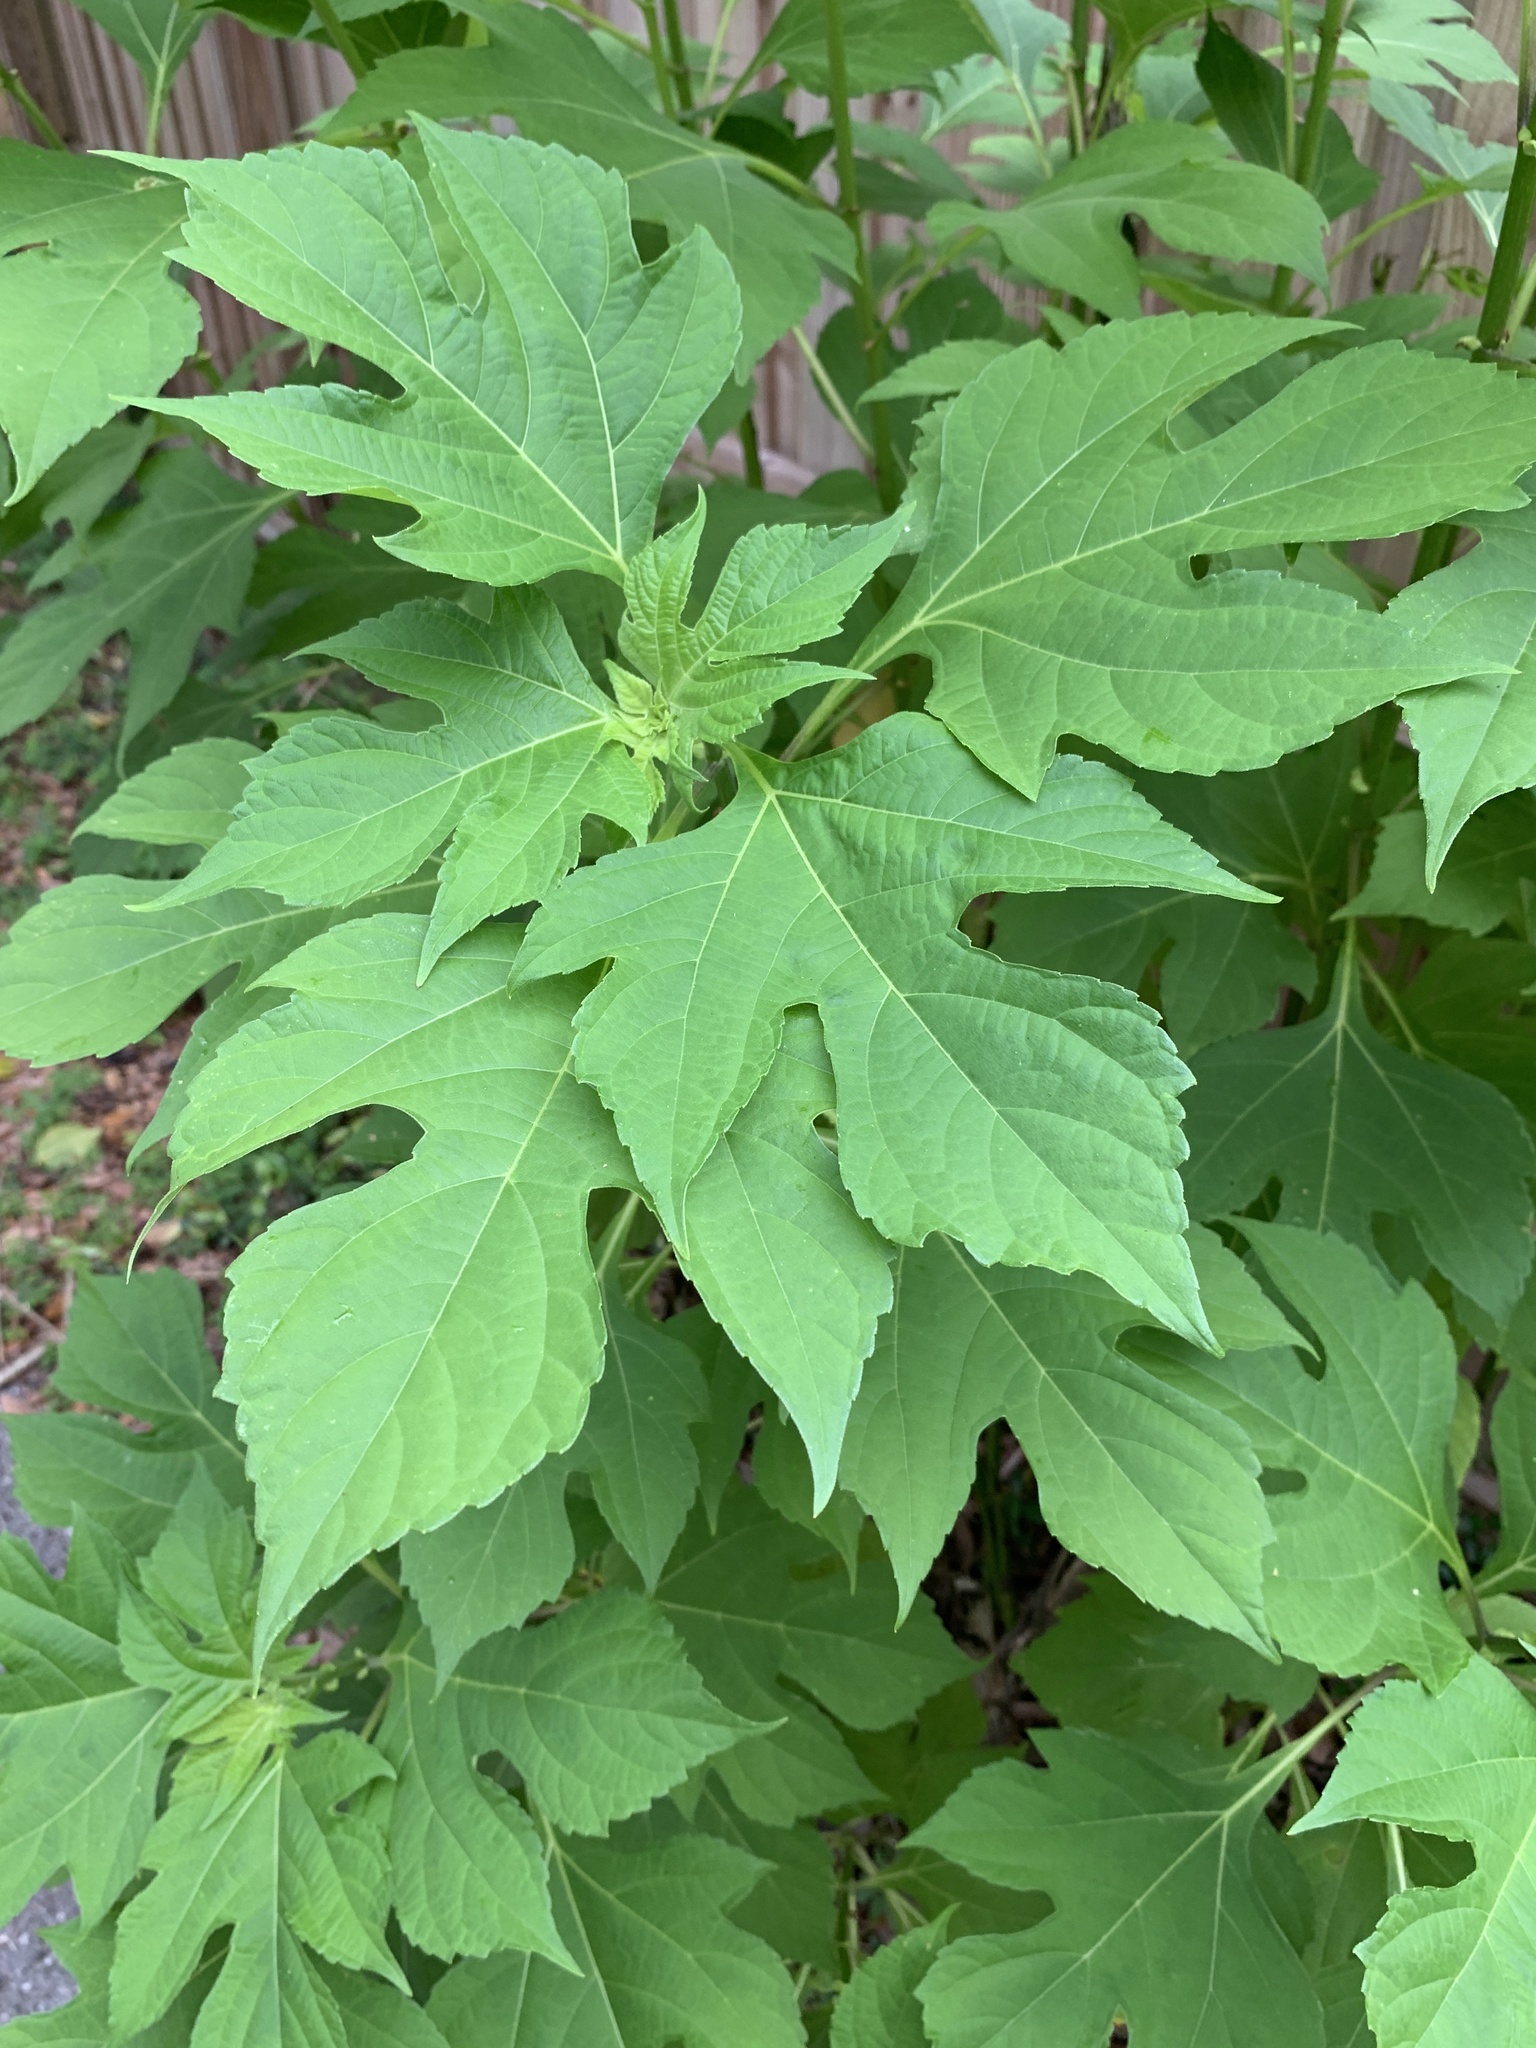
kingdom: Plantae
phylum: Tracheophyta
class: Magnoliopsida
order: Asterales
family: Asteraceae
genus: Tithonia
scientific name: Tithonia diversifolia
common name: Tree marigold
